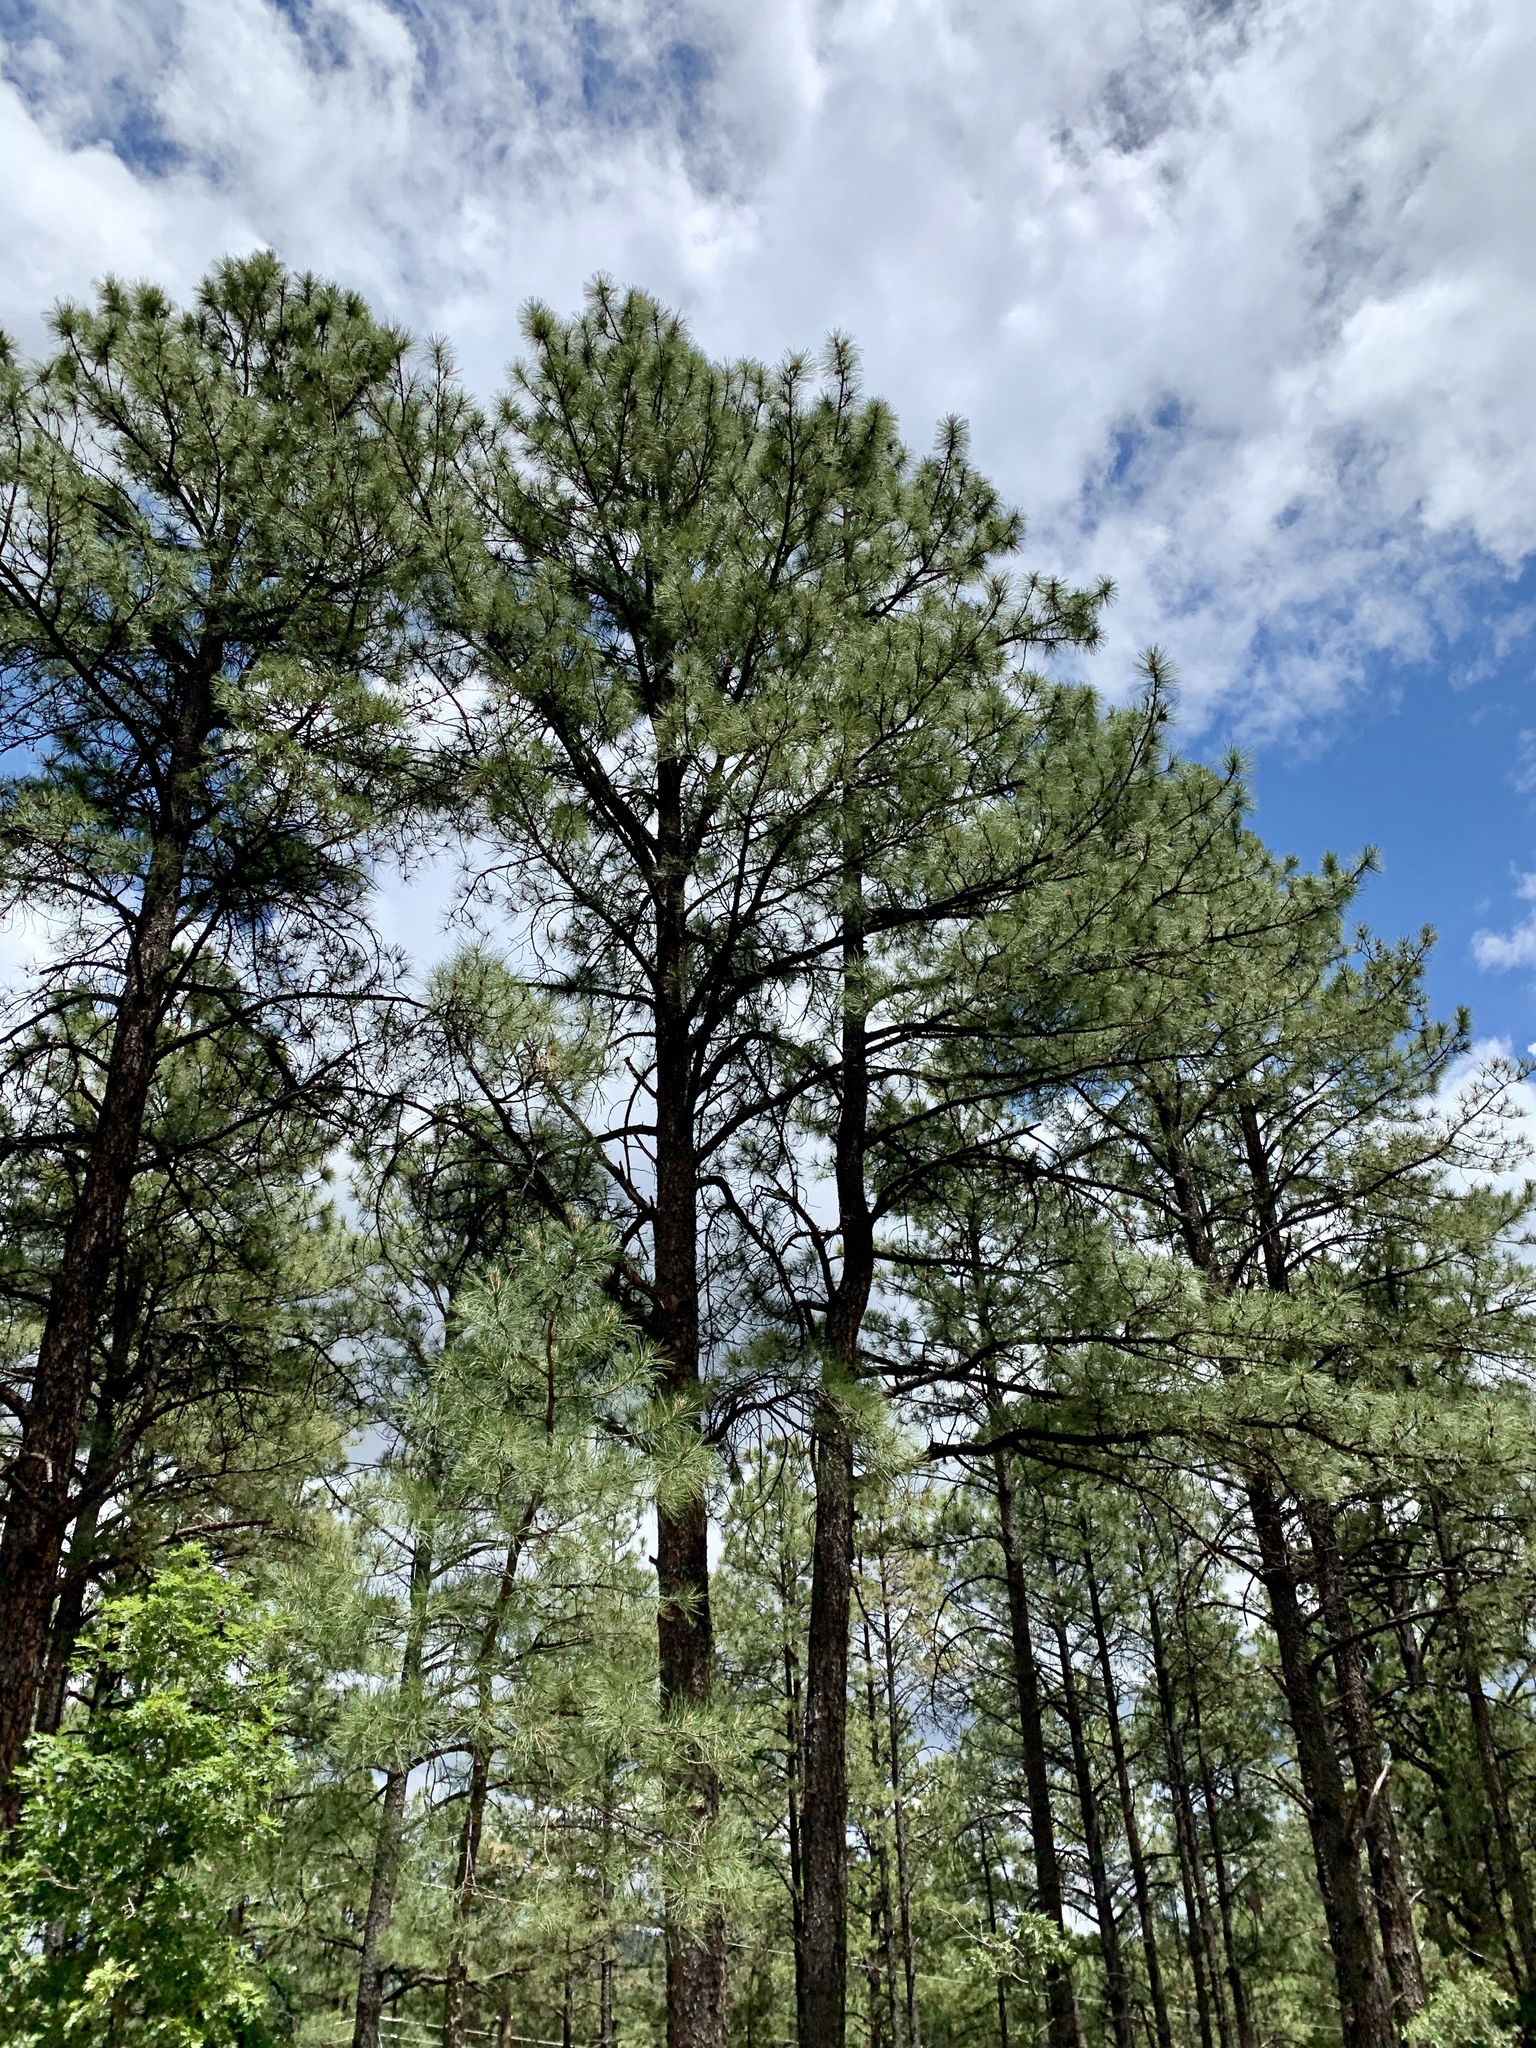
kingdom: Plantae
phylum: Tracheophyta
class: Pinopsida
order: Pinales
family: Pinaceae
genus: Pinus
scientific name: Pinus ponderosa
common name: Western yellow-pine
